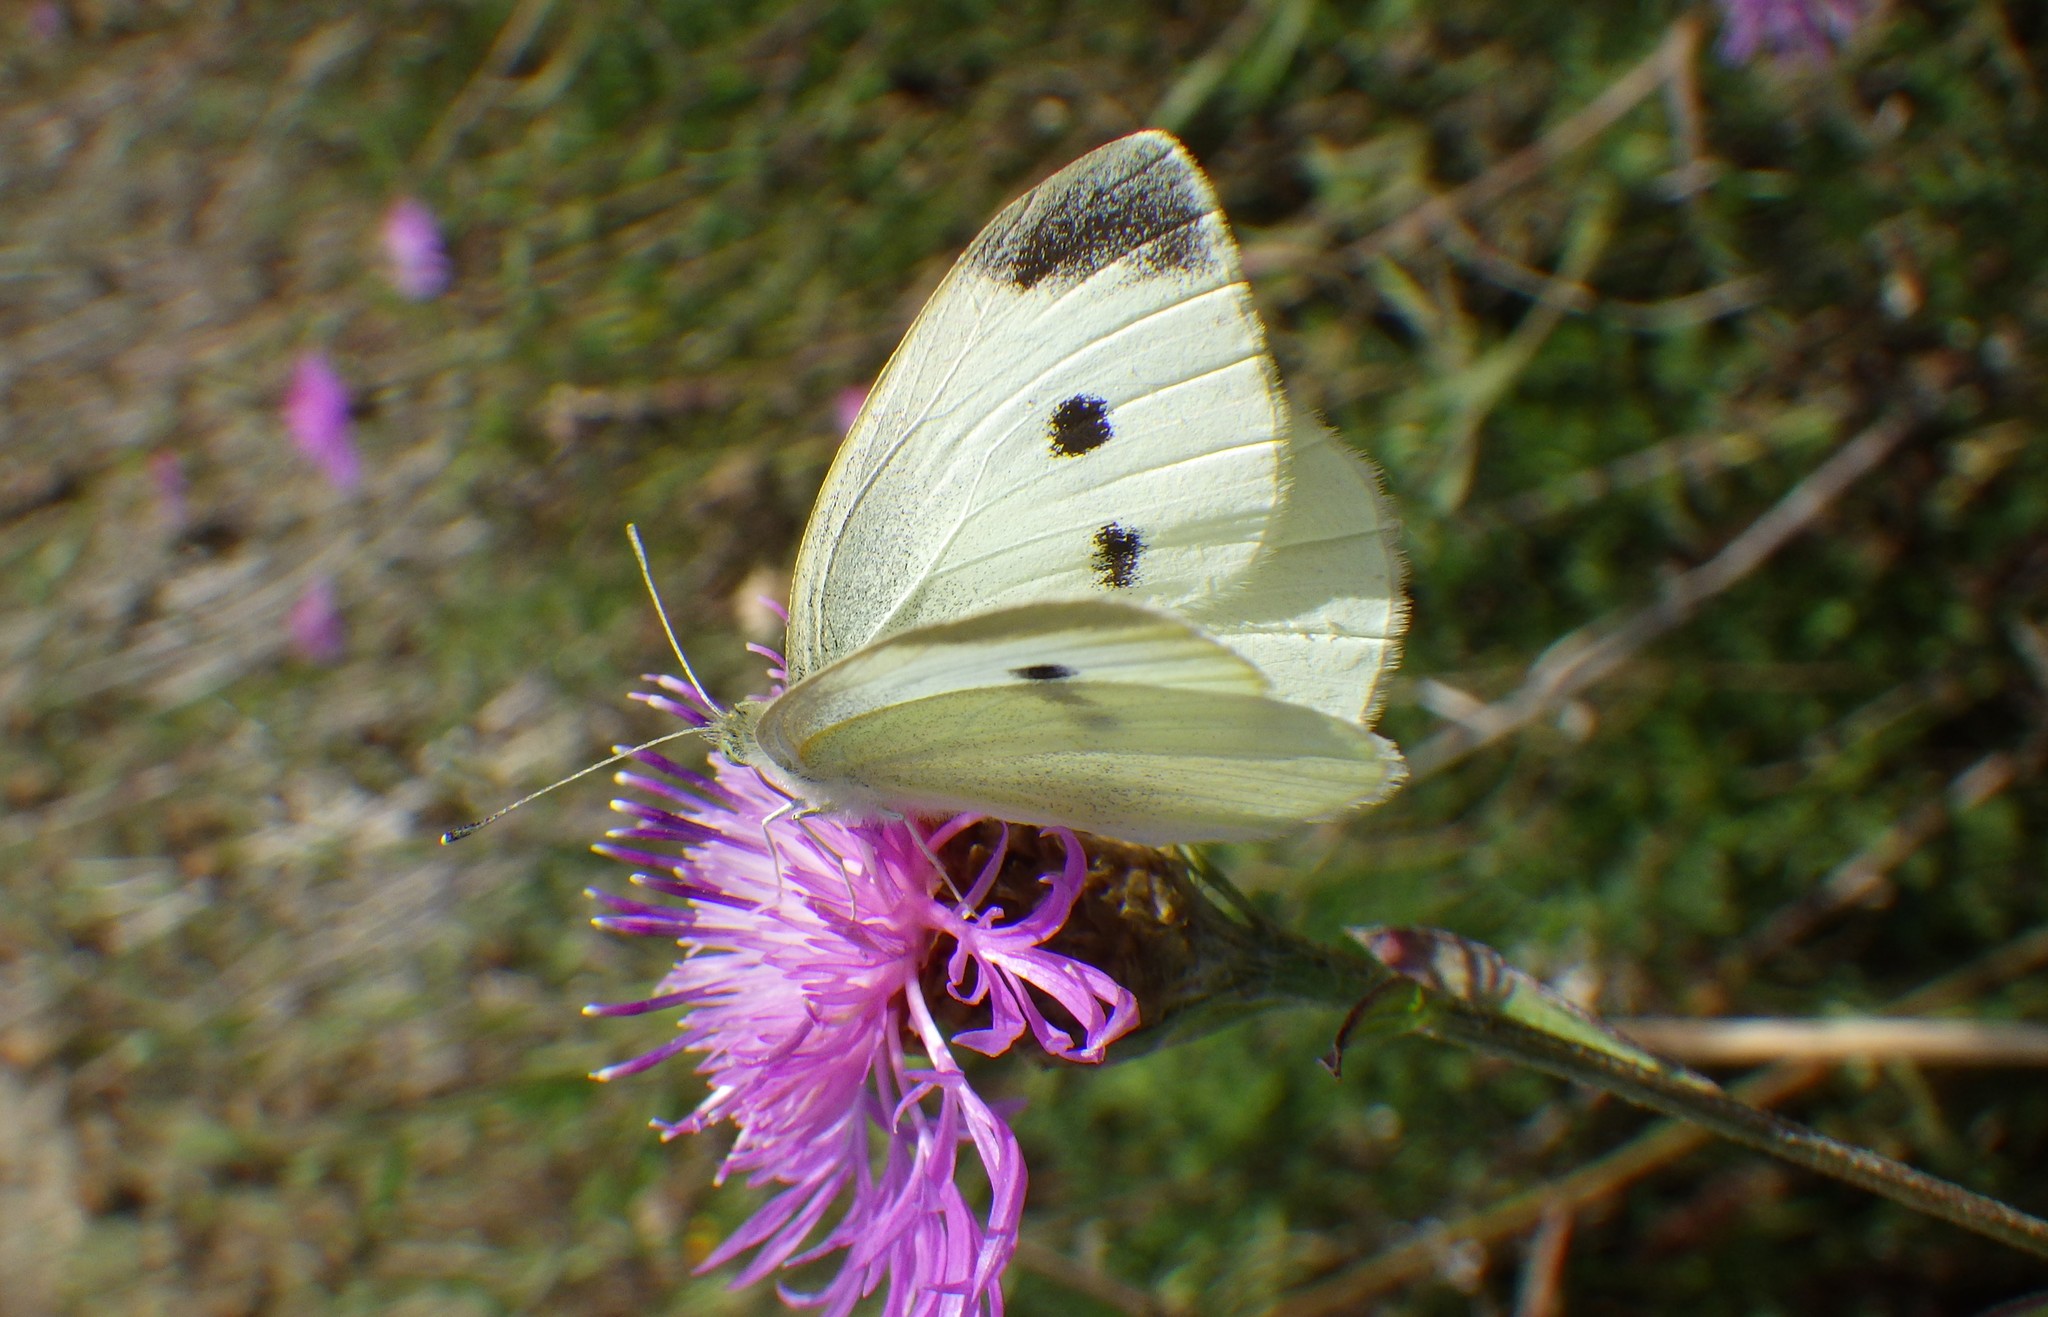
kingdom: Animalia
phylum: Arthropoda
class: Insecta
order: Lepidoptera
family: Pieridae
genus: Pieris
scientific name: Pieris rapae
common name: Small white
